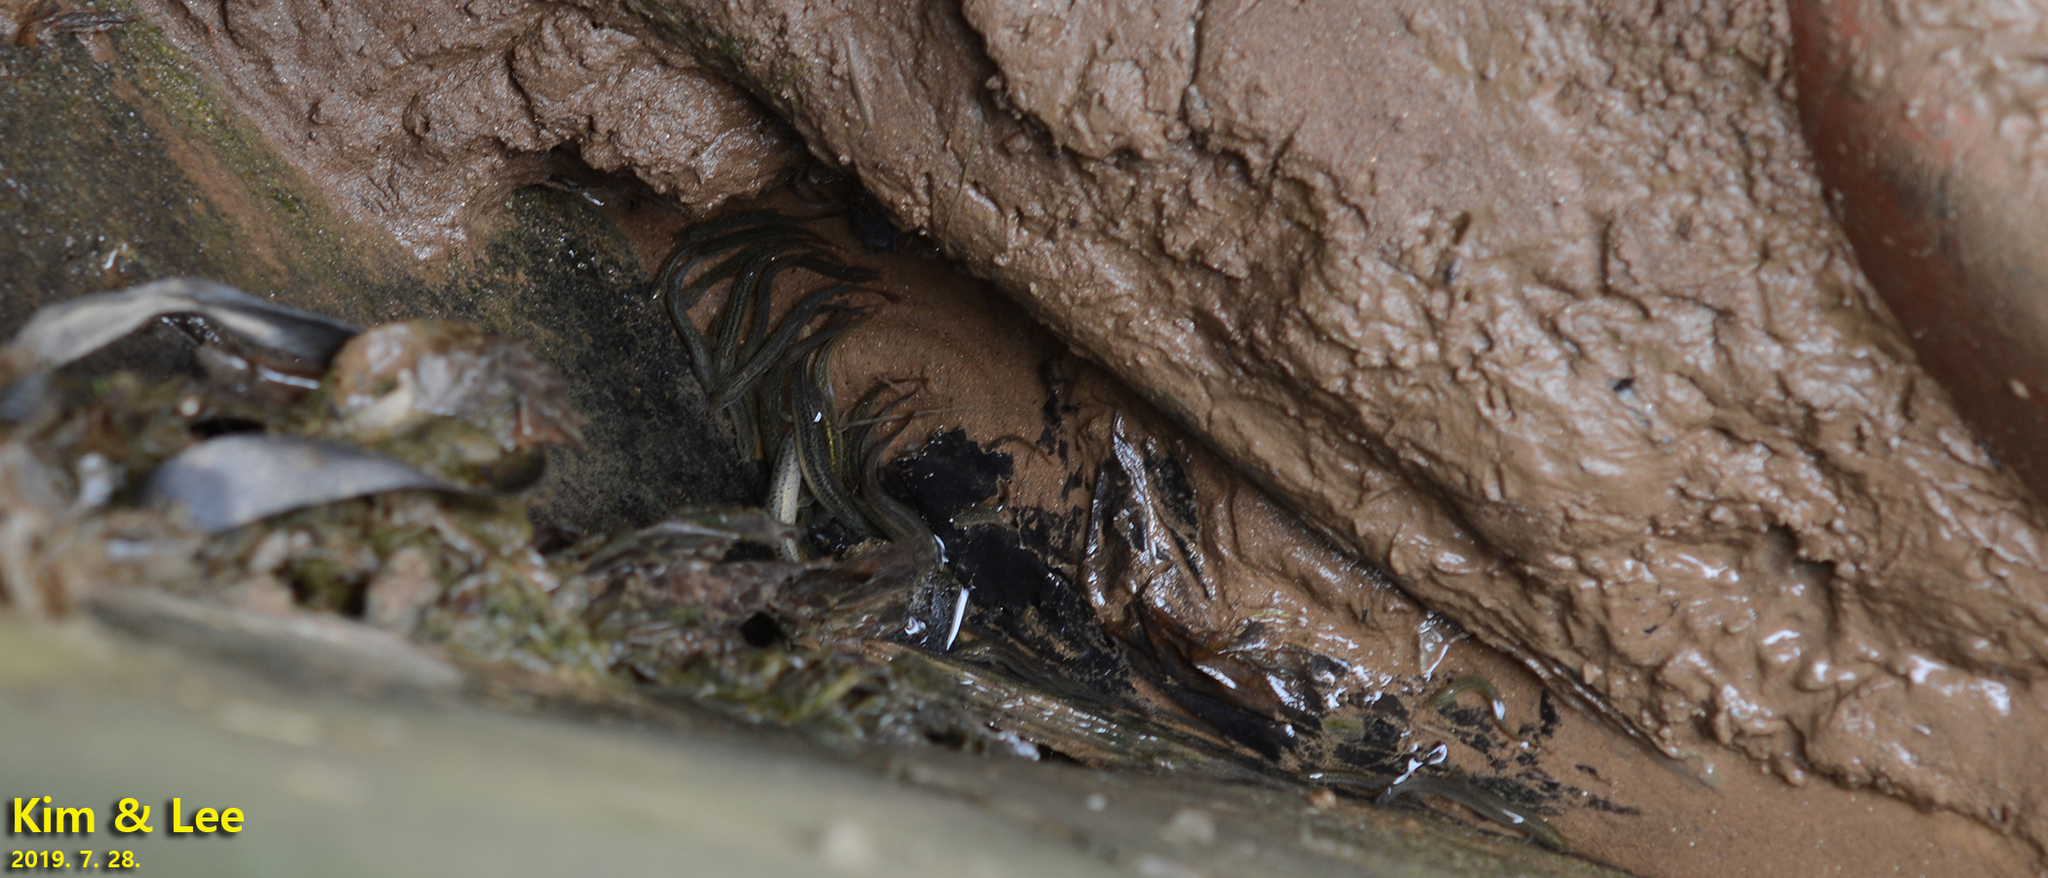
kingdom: Animalia
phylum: Chordata
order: Cypriniformes
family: Cobitidae
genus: Misgurnus
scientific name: Misgurnus anguillicaudatus
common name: Oriental weatherfish
